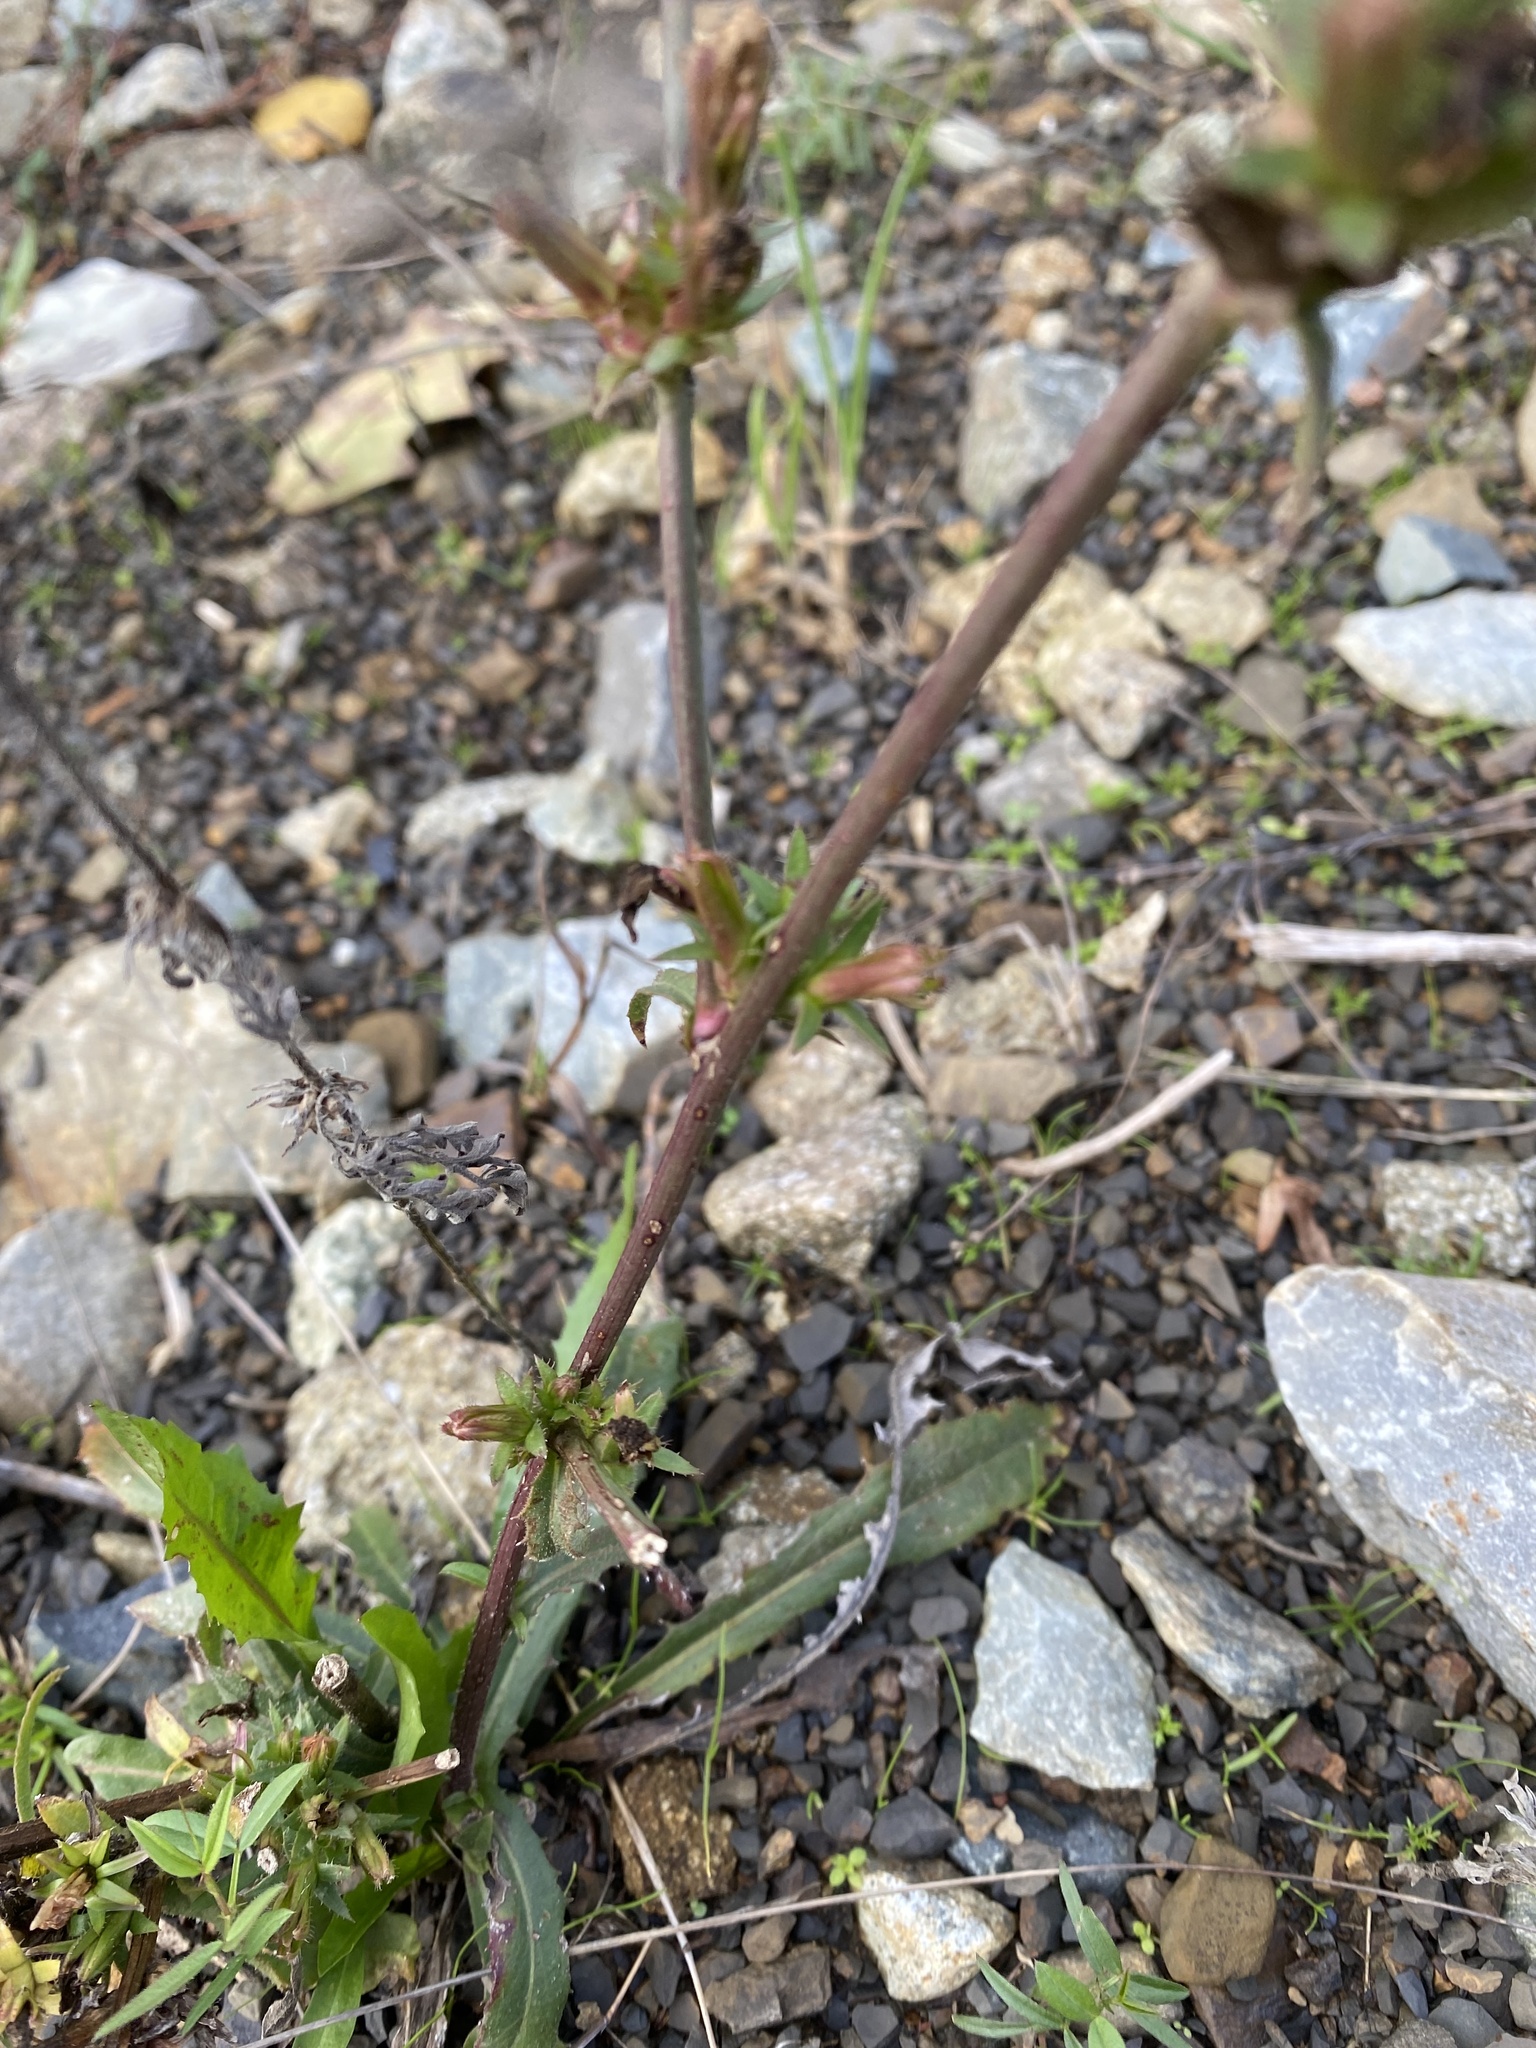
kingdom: Plantae
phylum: Tracheophyta
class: Magnoliopsida
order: Asterales
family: Asteraceae
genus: Cichorium
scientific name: Cichorium intybus
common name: Chicory
